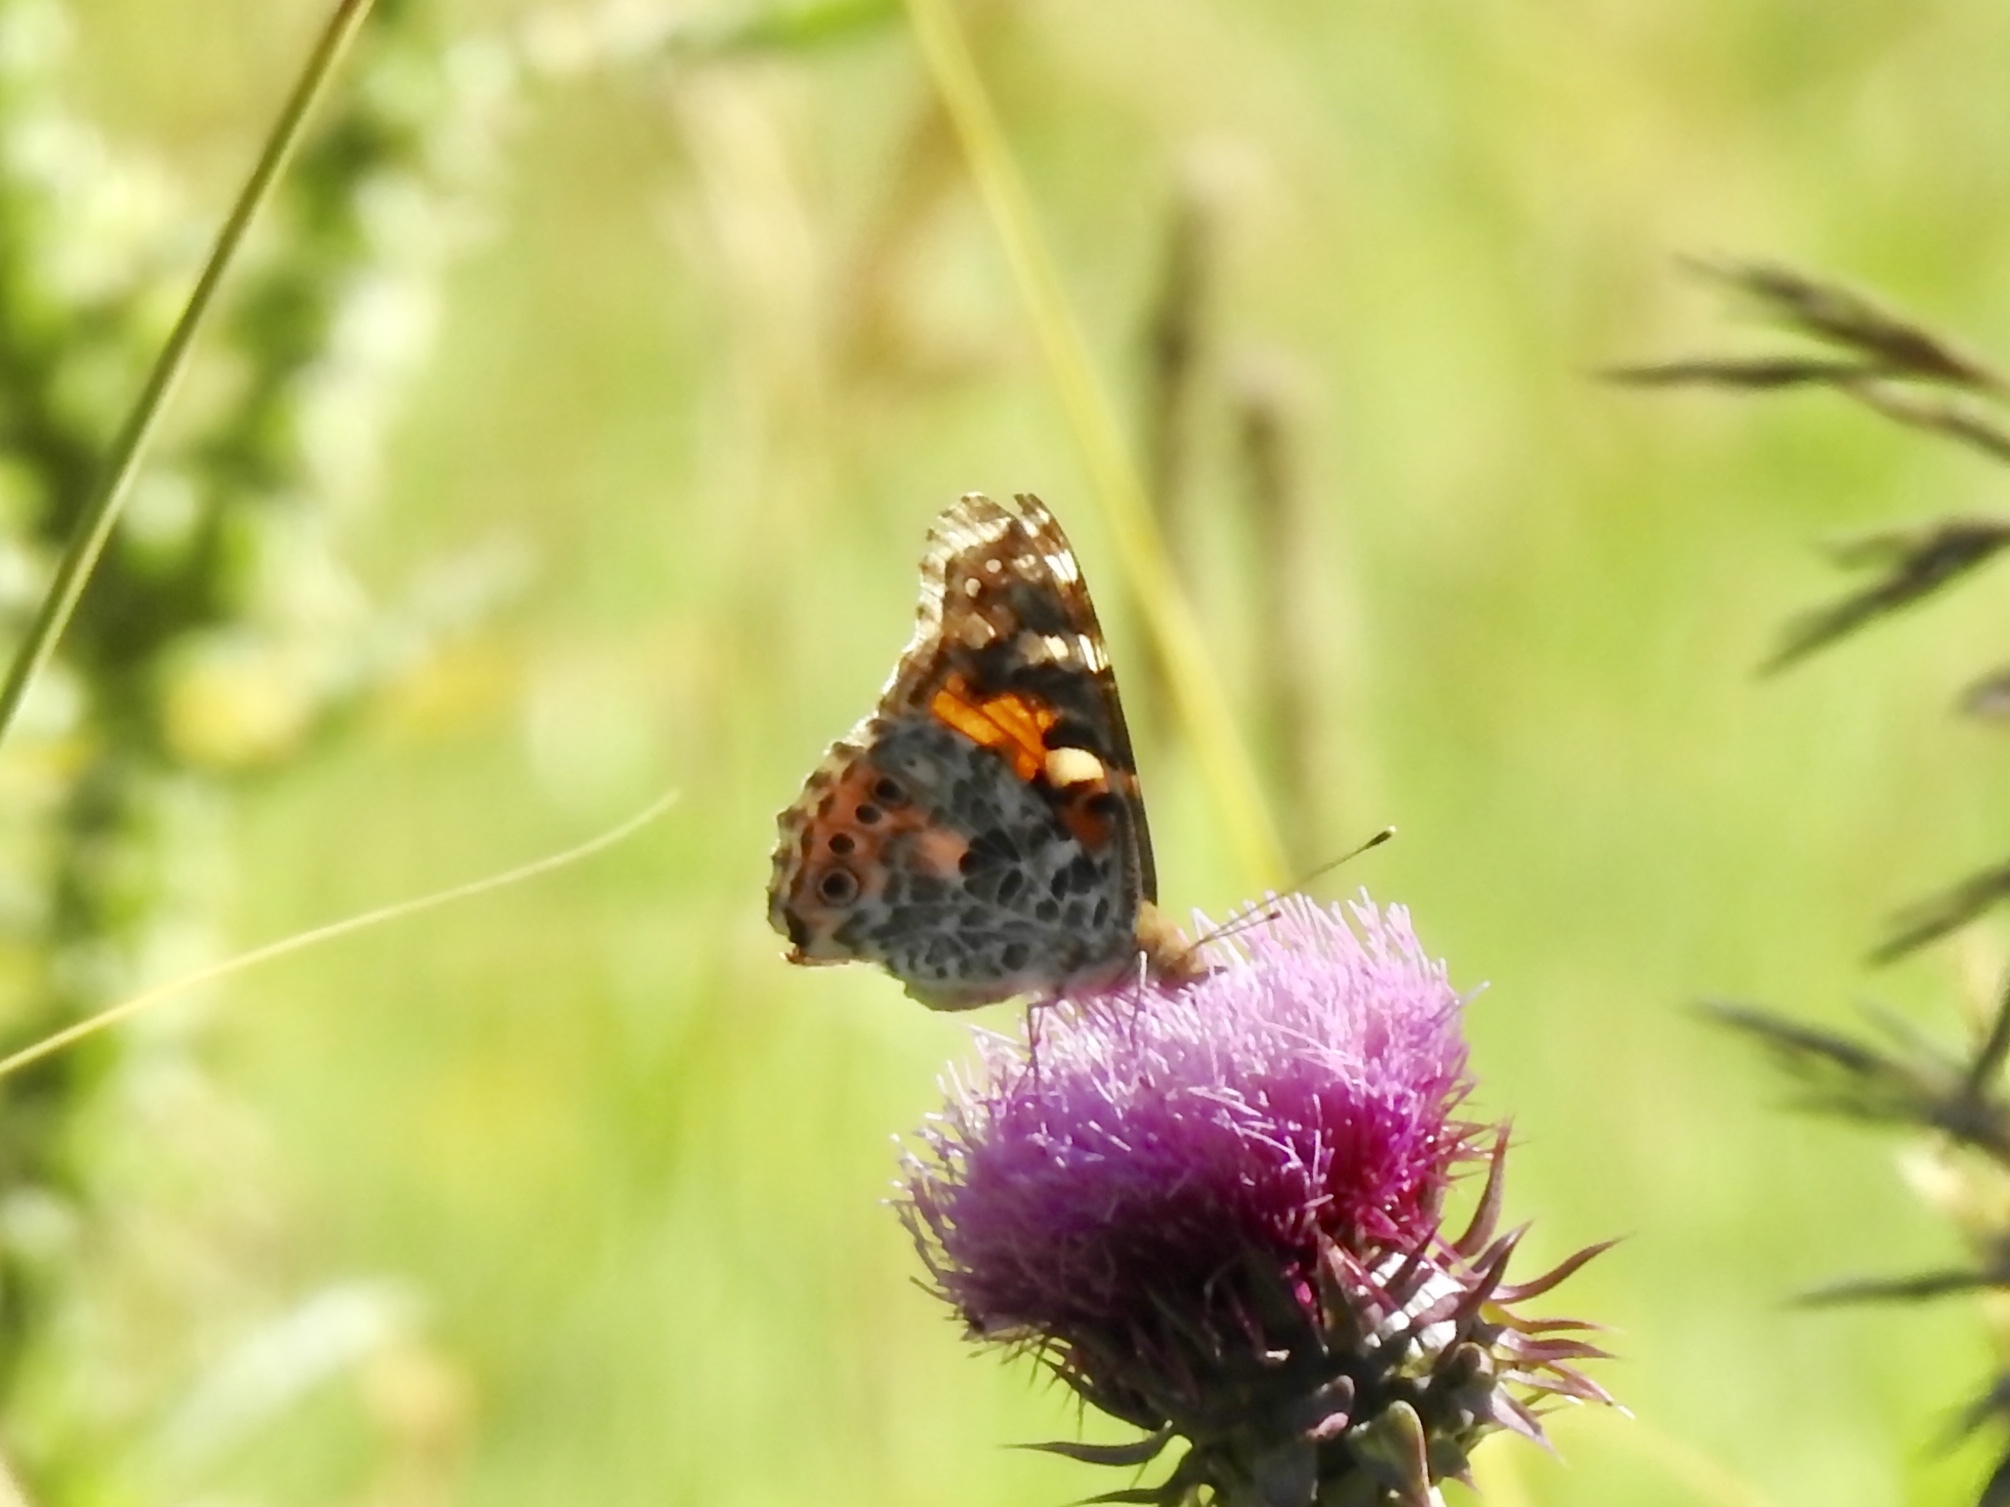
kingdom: Animalia
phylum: Arthropoda
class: Insecta
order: Lepidoptera
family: Nymphalidae
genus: Vanessa
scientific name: Vanessa cardui
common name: Painted lady
